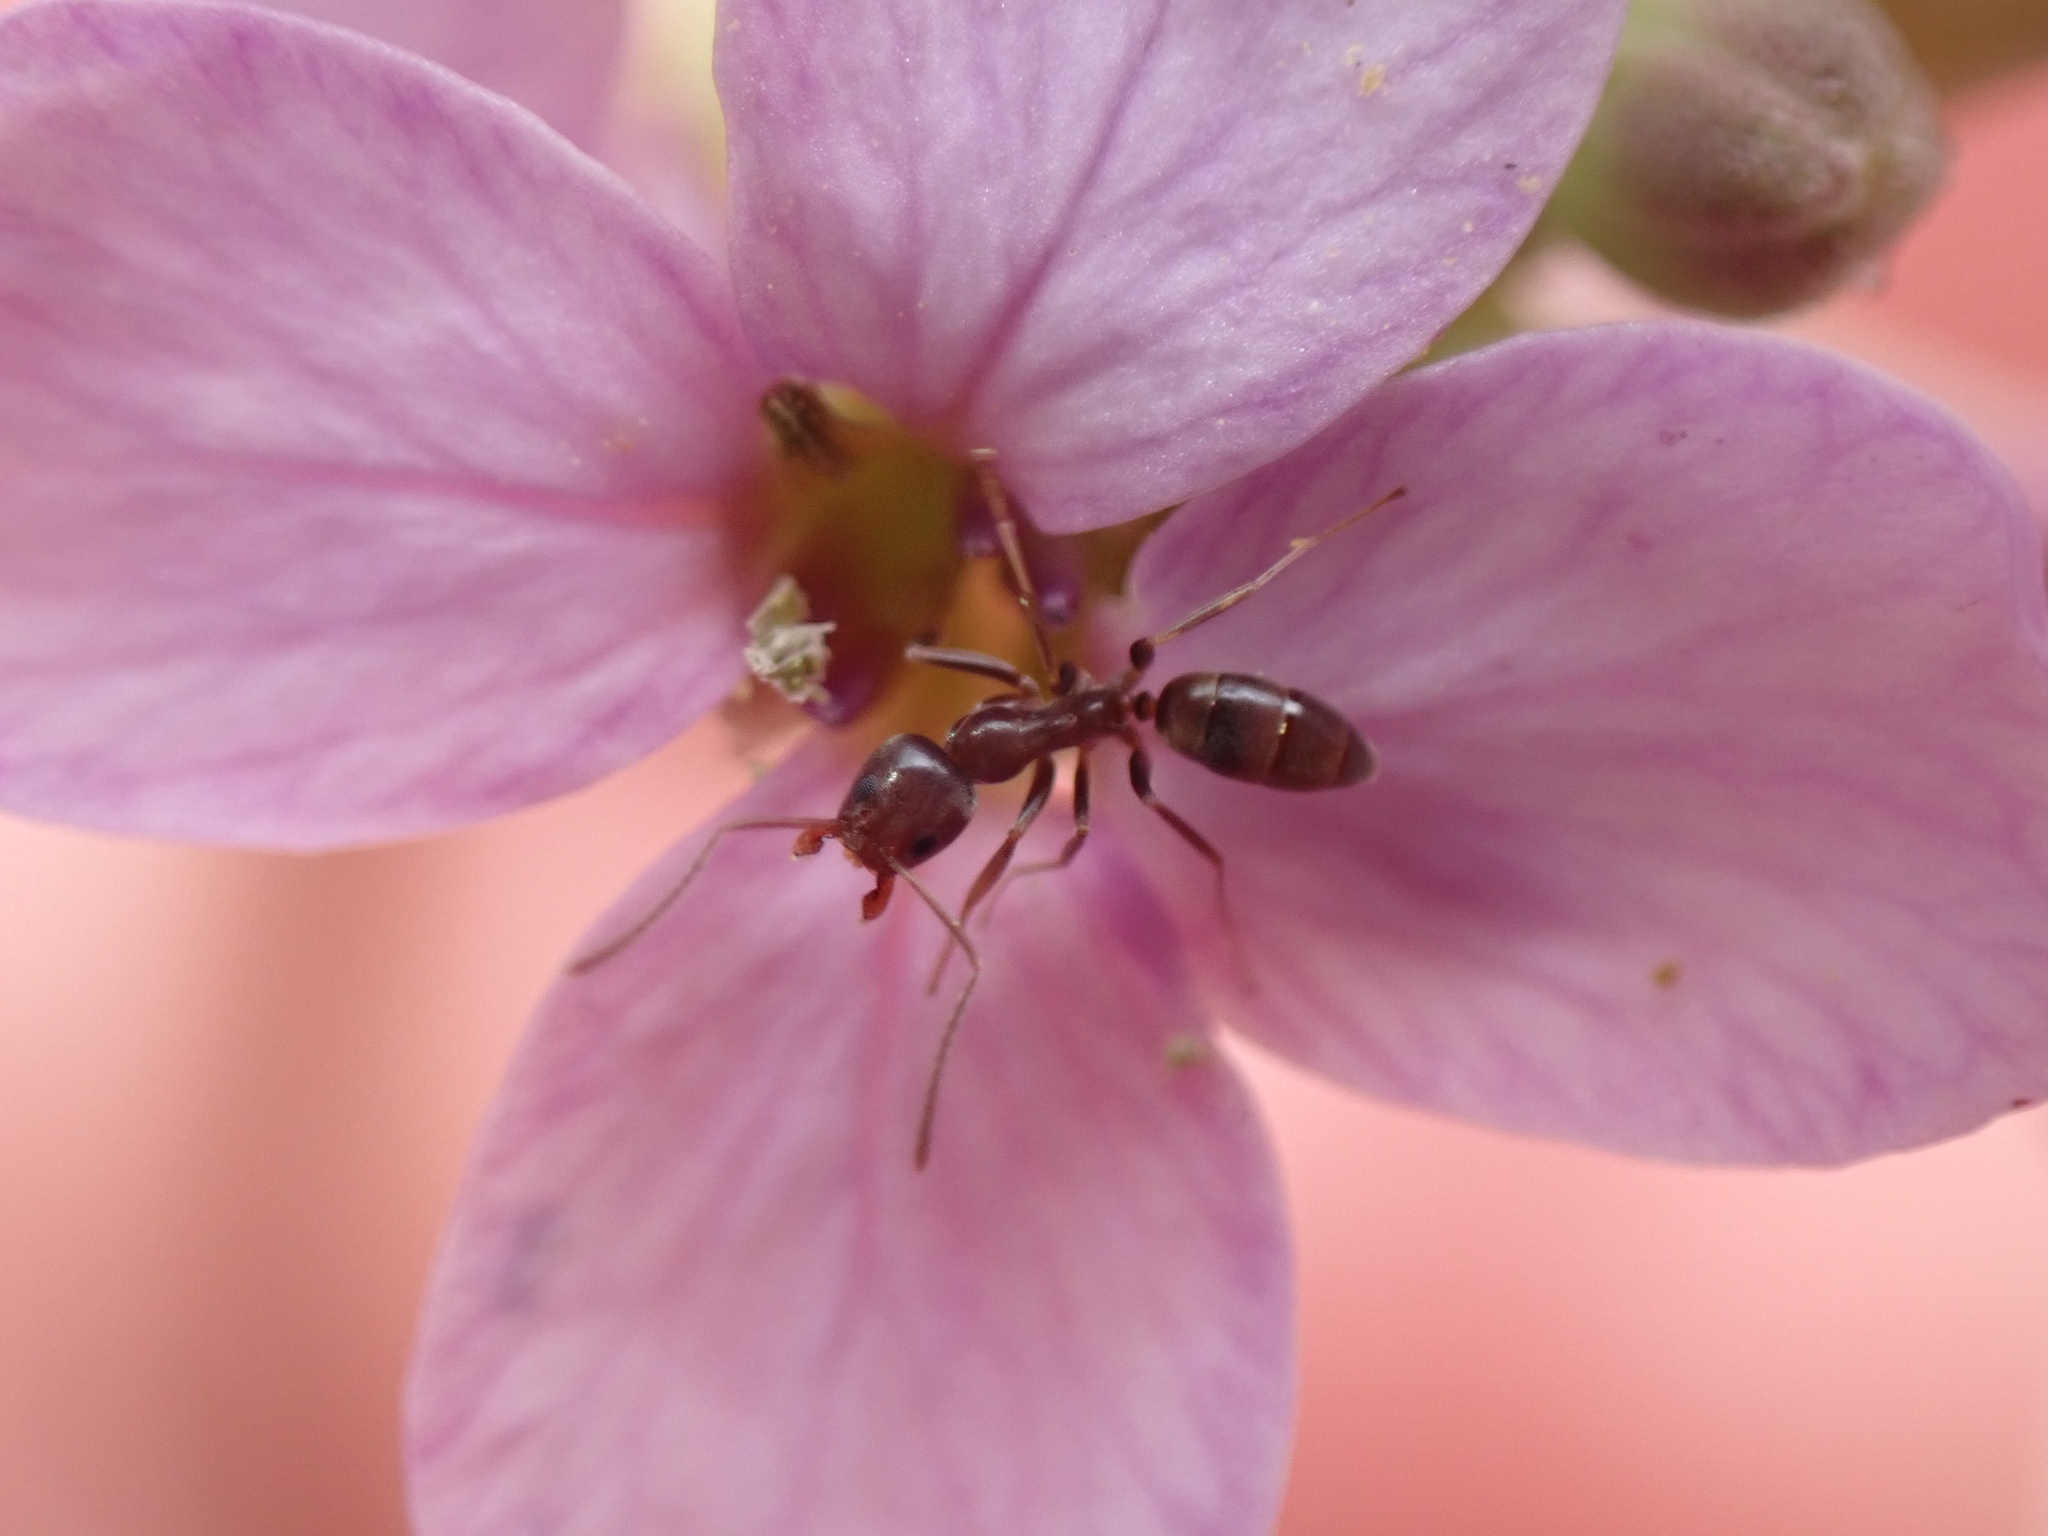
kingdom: Animalia
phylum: Arthropoda
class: Insecta
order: Hymenoptera
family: Formicidae
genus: Linepithema
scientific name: Linepithema humile
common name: Argentine ant
